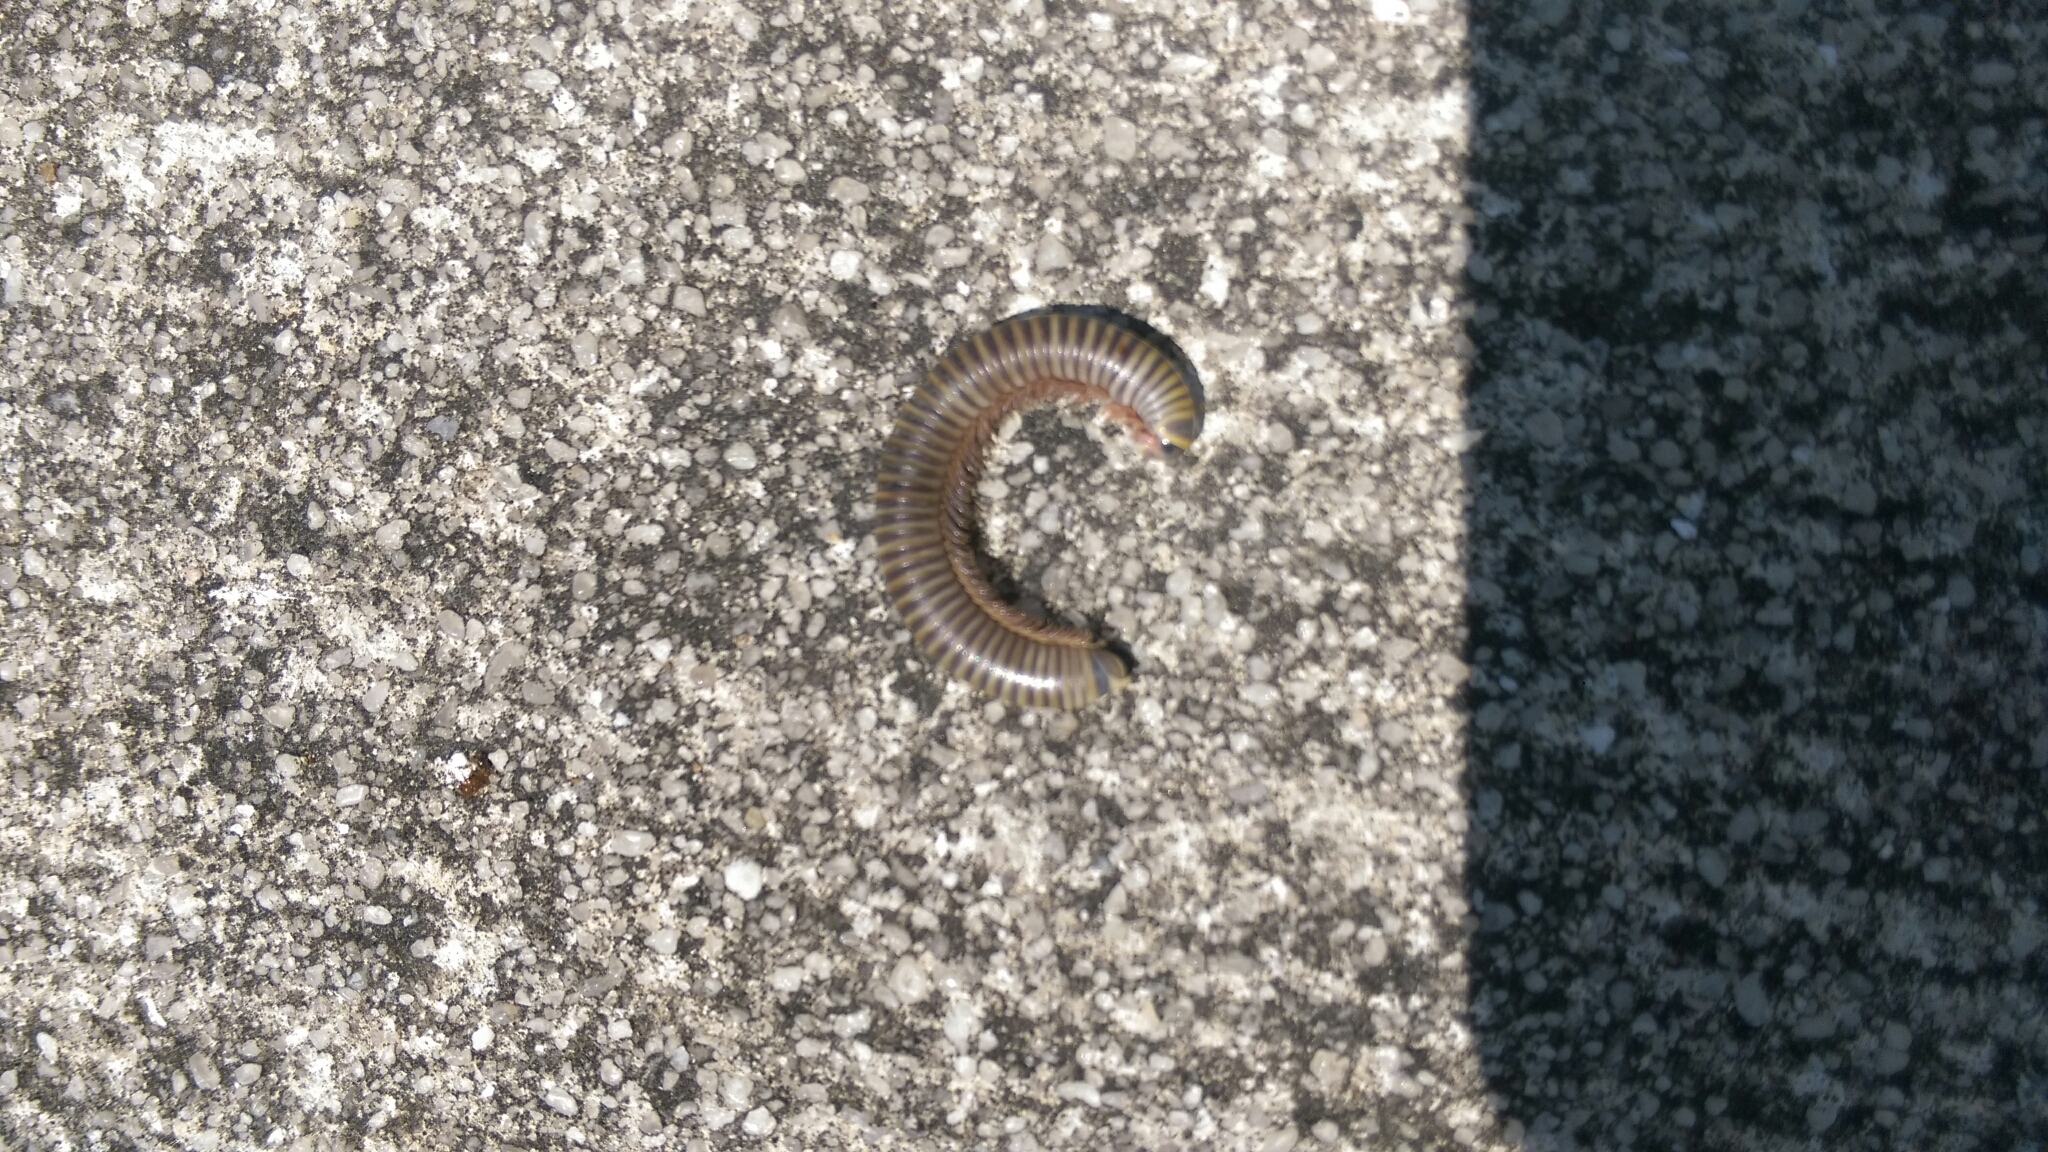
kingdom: Animalia
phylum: Arthropoda
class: Diplopoda
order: Spirobolida
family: Rhinocricidae
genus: Anadenobolus
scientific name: Anadenobolus monilicornis
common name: Caribbean millipede
